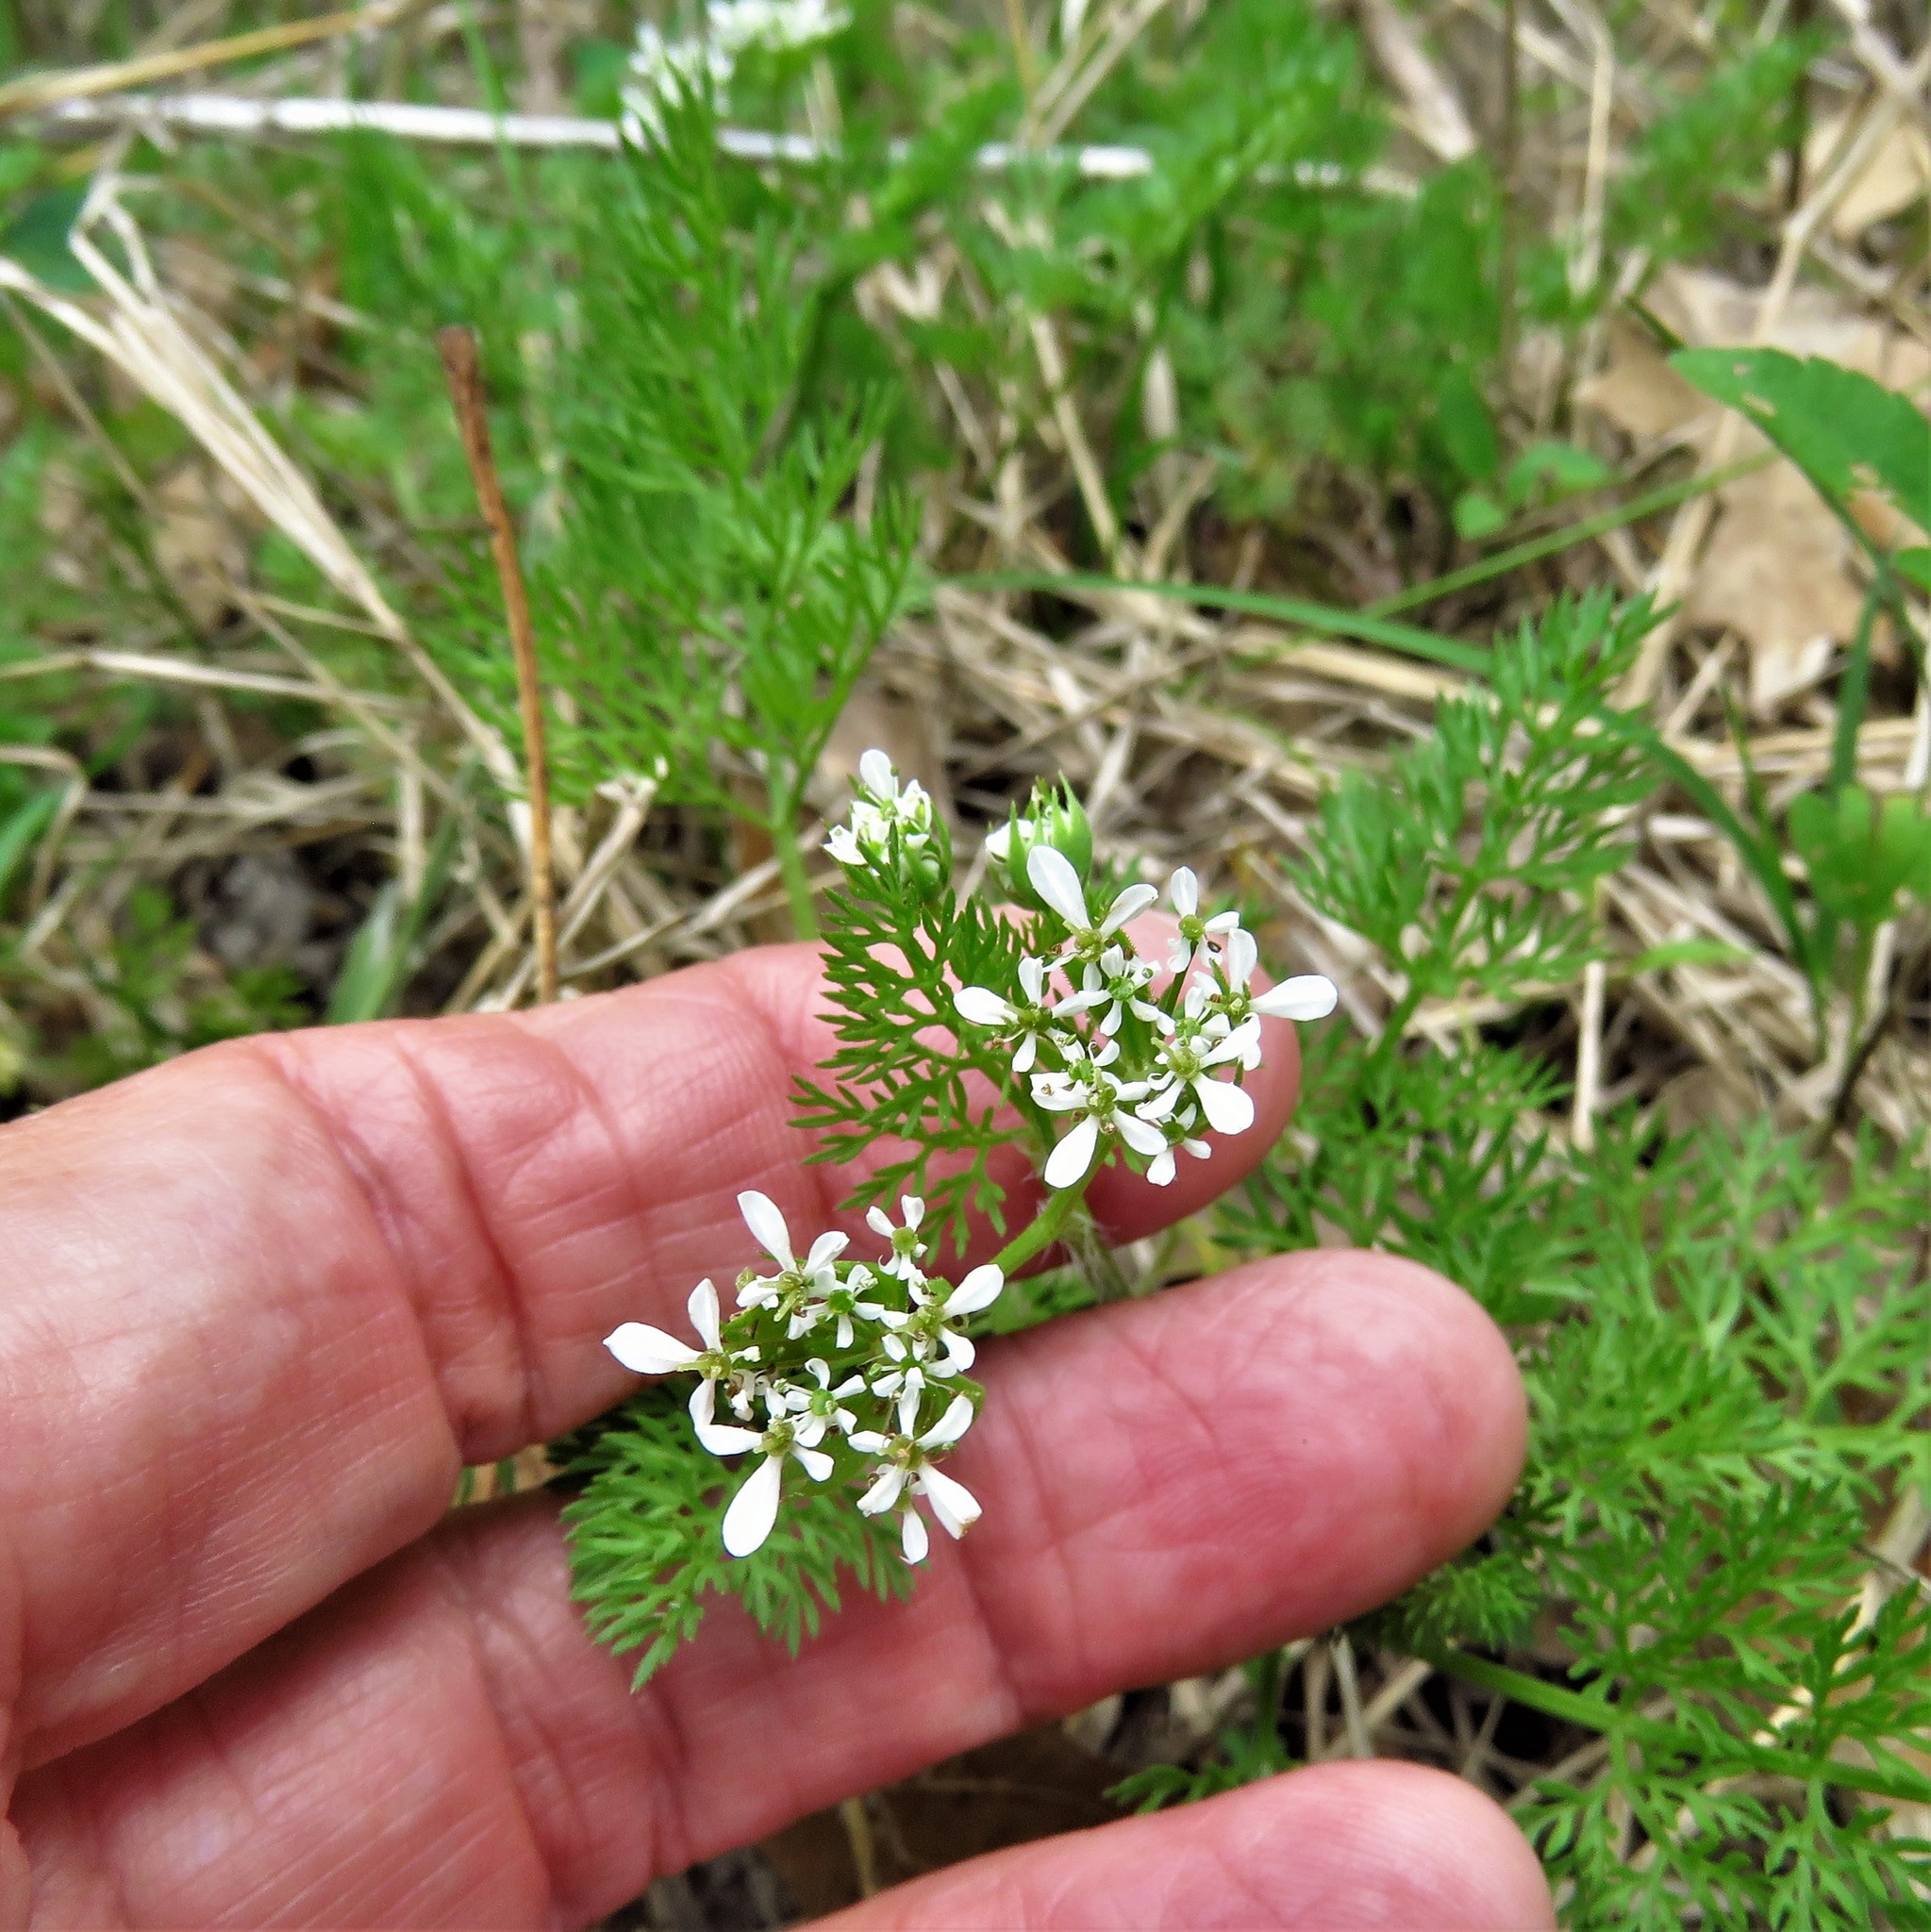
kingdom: Plantae
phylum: Tracheophyta
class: Magnoliopsida
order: Apiales
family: Apiaceae
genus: Scandix
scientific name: Scandix pecten-veneris
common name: Shepherd's-needle
